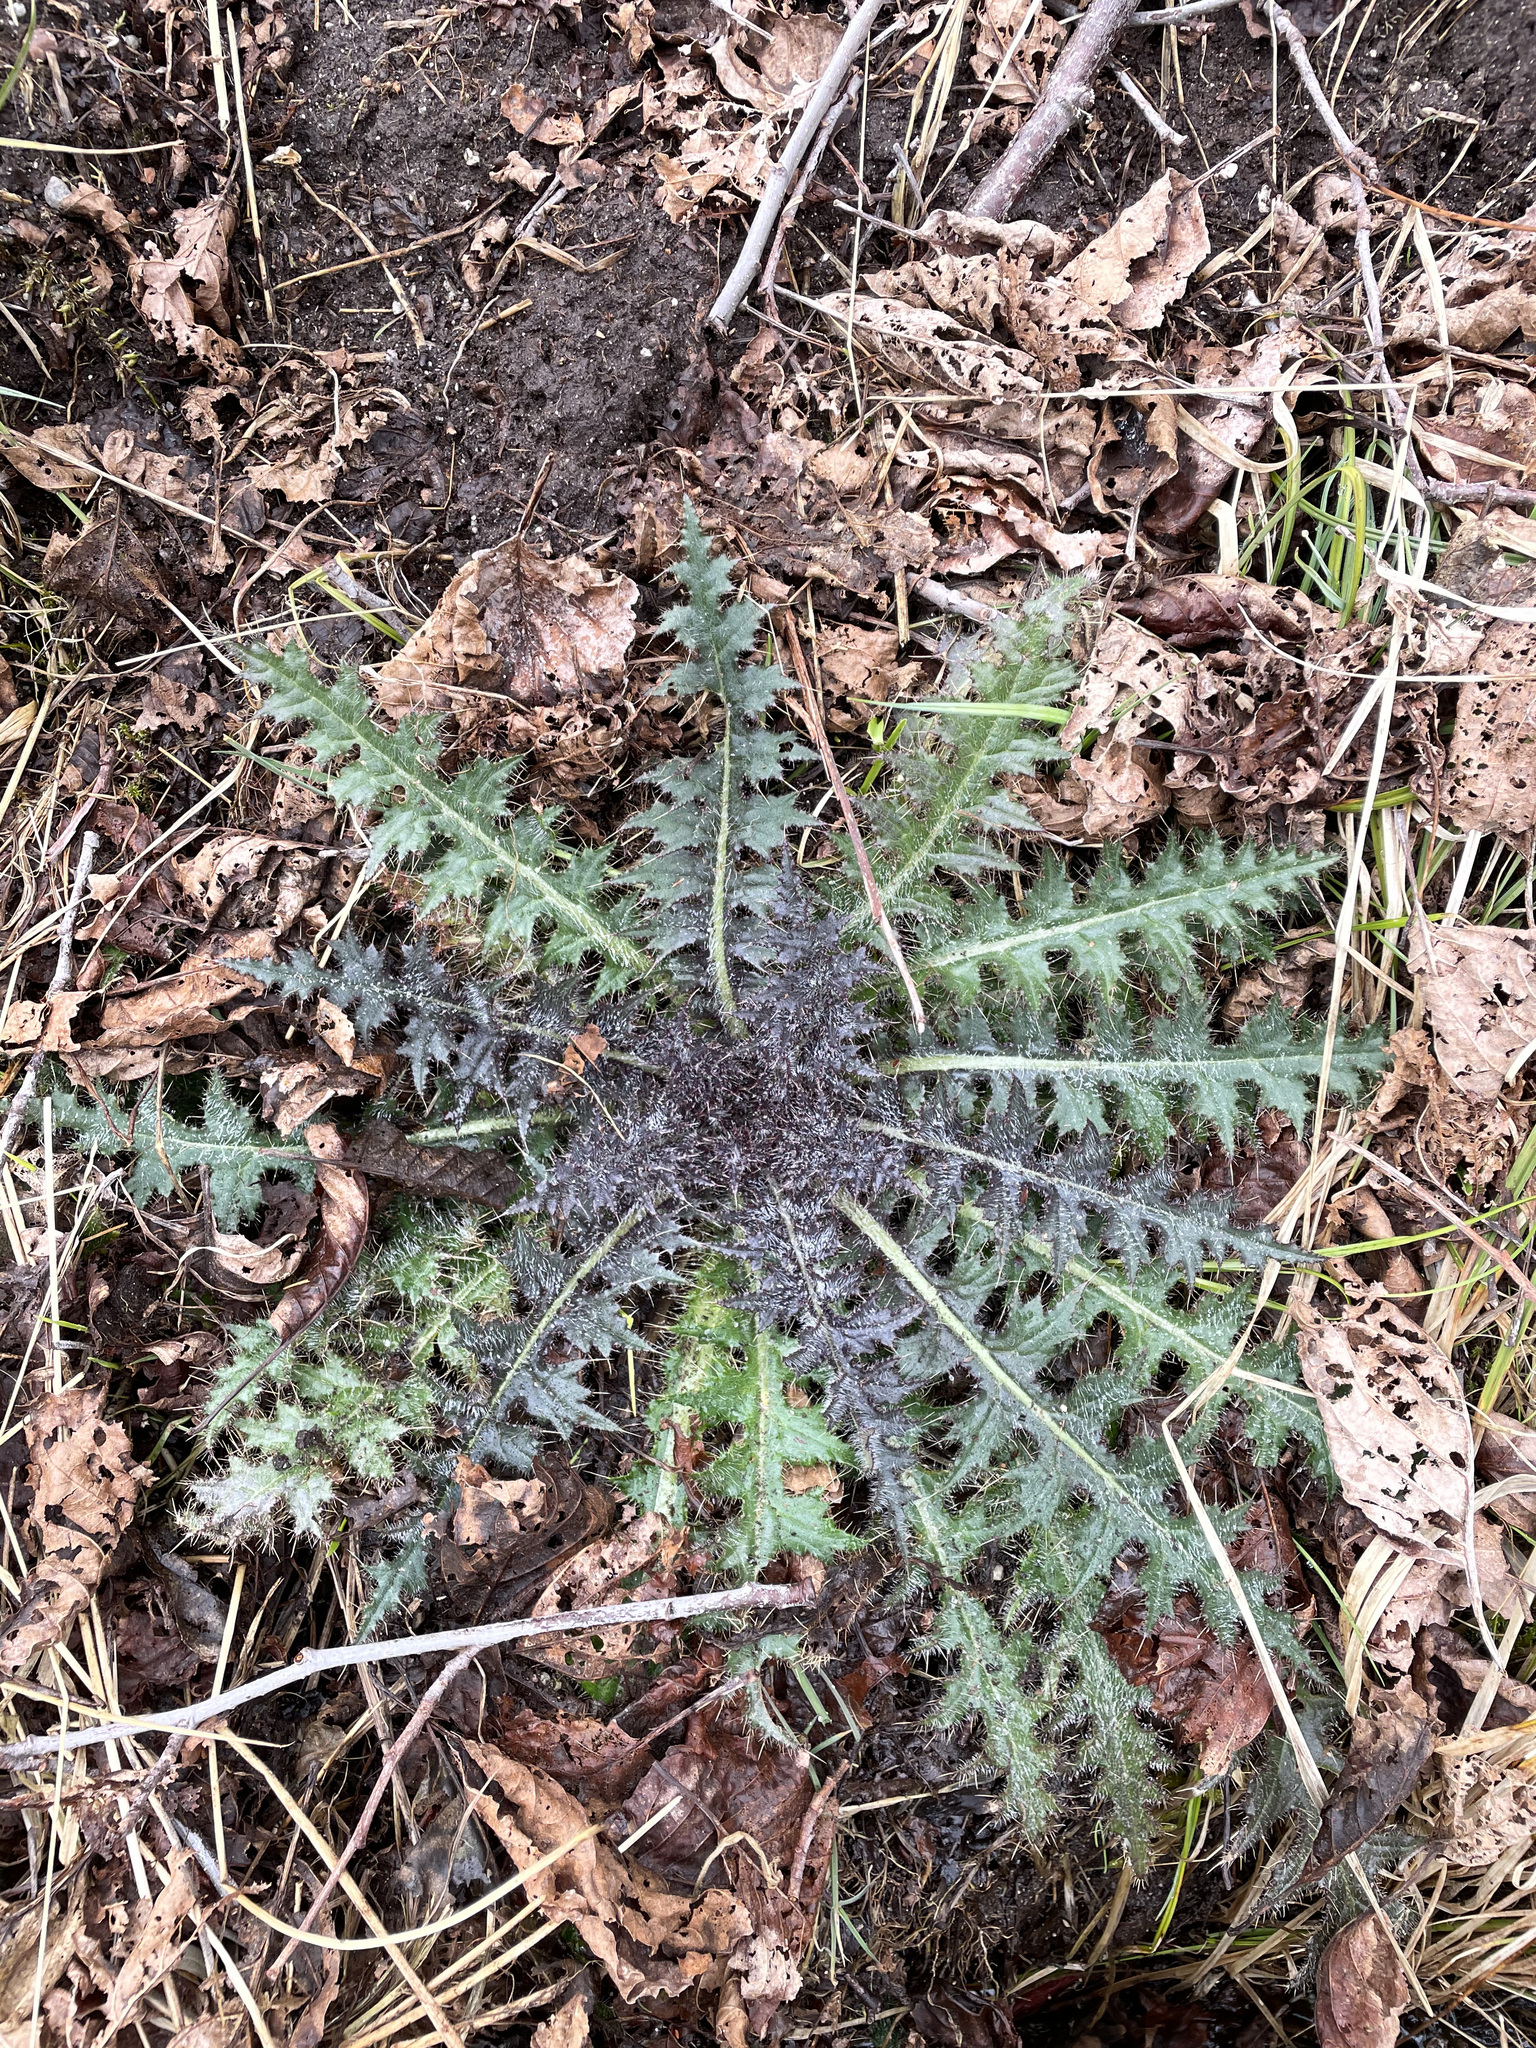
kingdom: Plantae
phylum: Tracheophyta
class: Magnoliopsida
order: Asterales
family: Asteraceae
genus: Cirsium
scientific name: Cirsium palustre
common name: Marsh thistle
